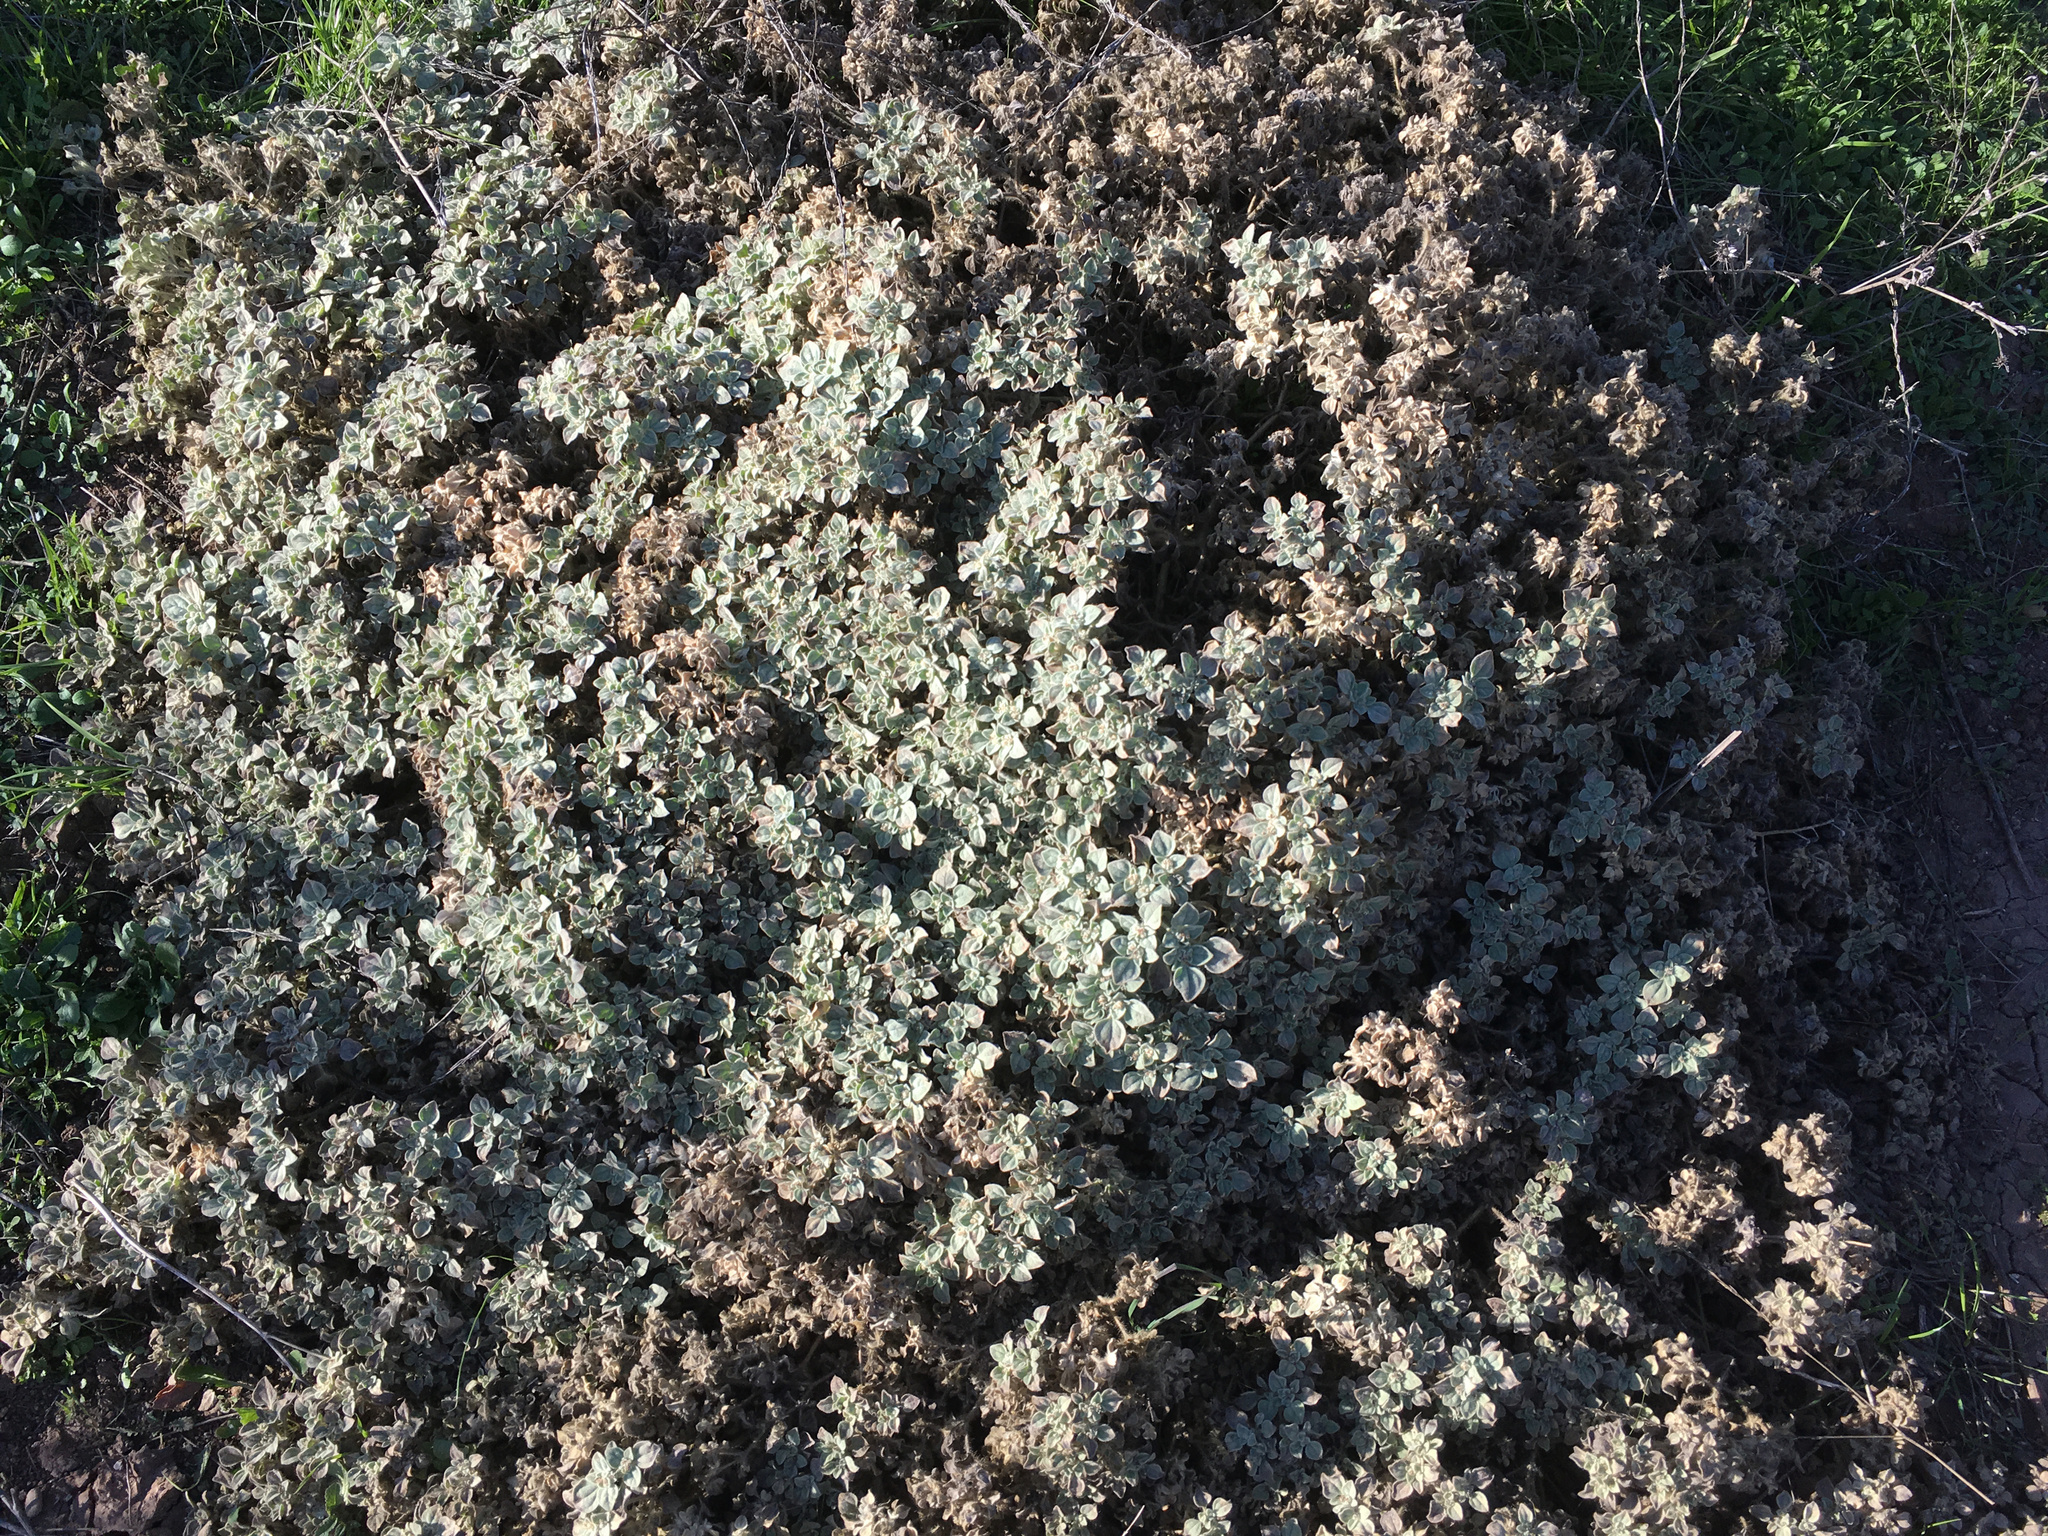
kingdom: Plantae
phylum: Tracheophyta
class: Magnoliopsida
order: Malpighiales
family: Euphorbiaceae
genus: Croton
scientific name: Croton setiger
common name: Dove weed
